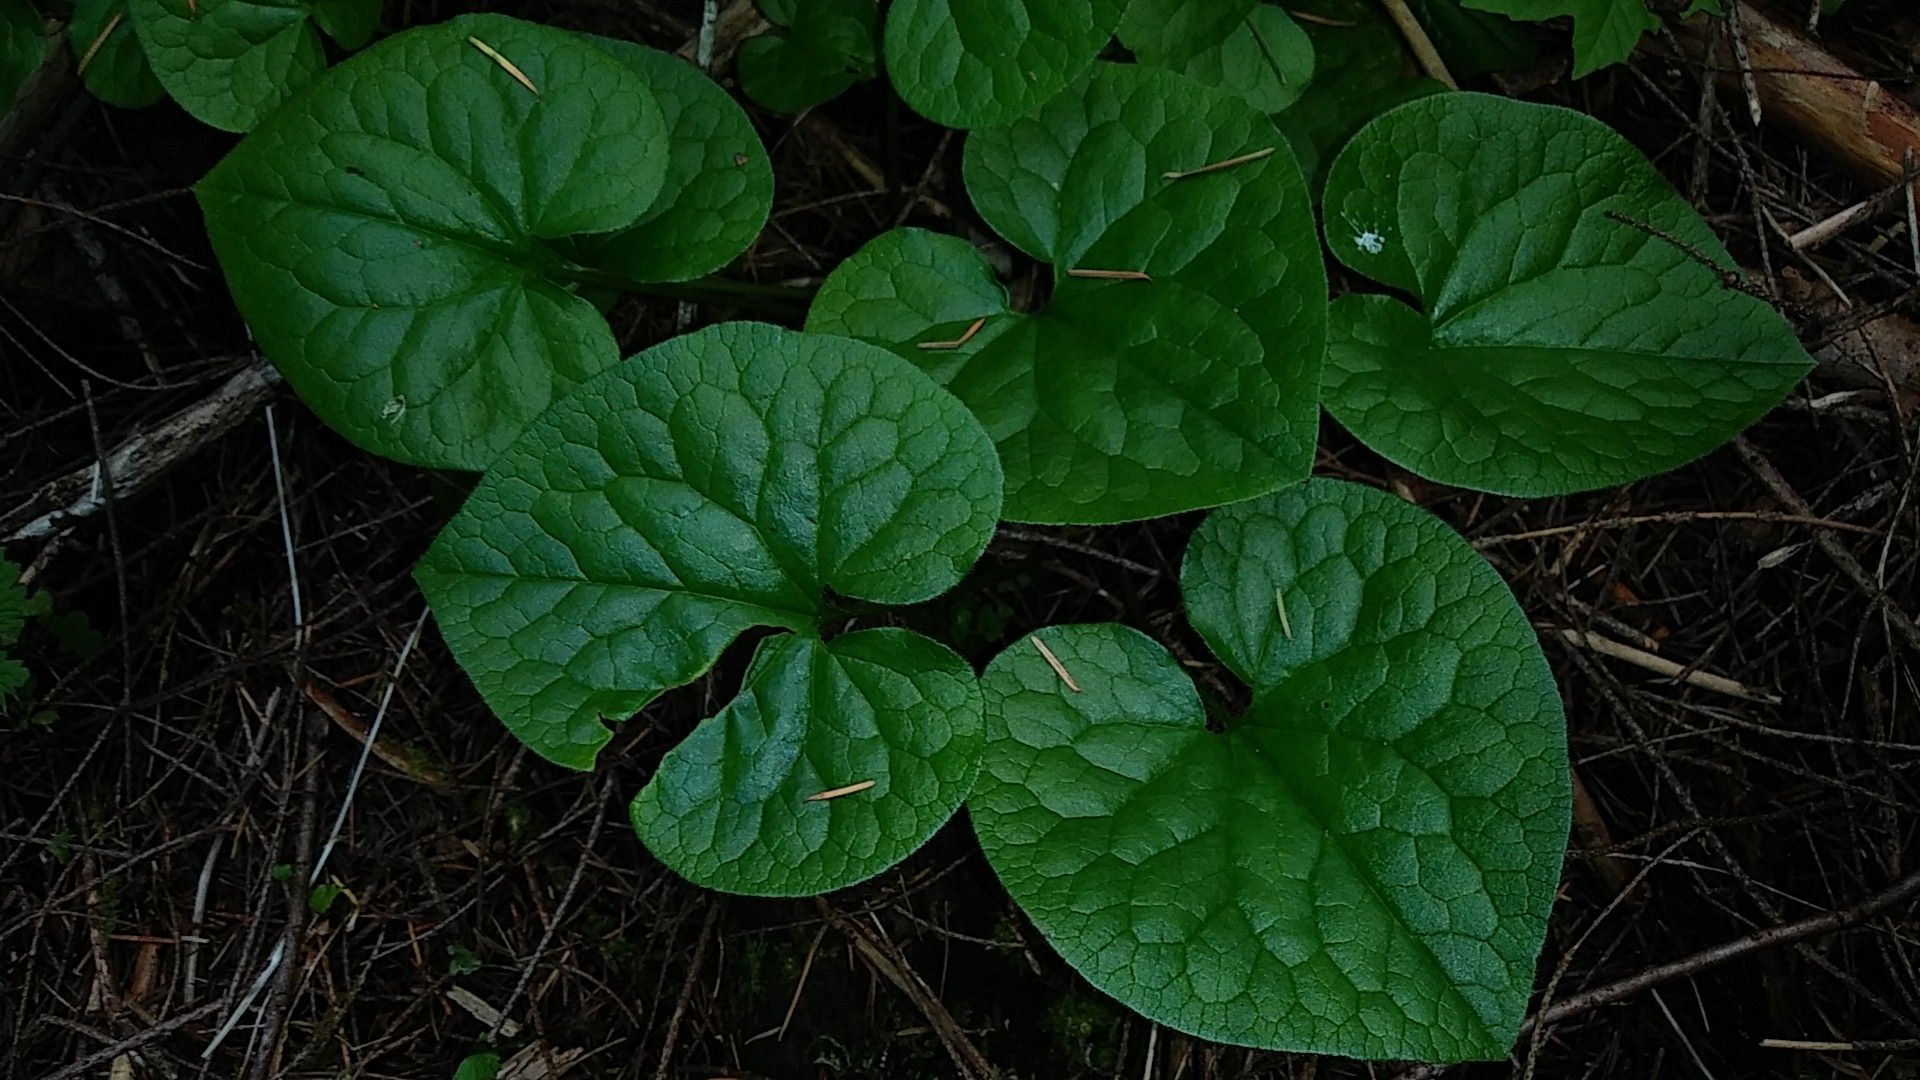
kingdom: Plantae
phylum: Tracheophyta
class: Magnoliopsida
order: Piperales
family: Aristolochiaceae
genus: Asarum
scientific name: Asarum caudatum
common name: Wild ginger
